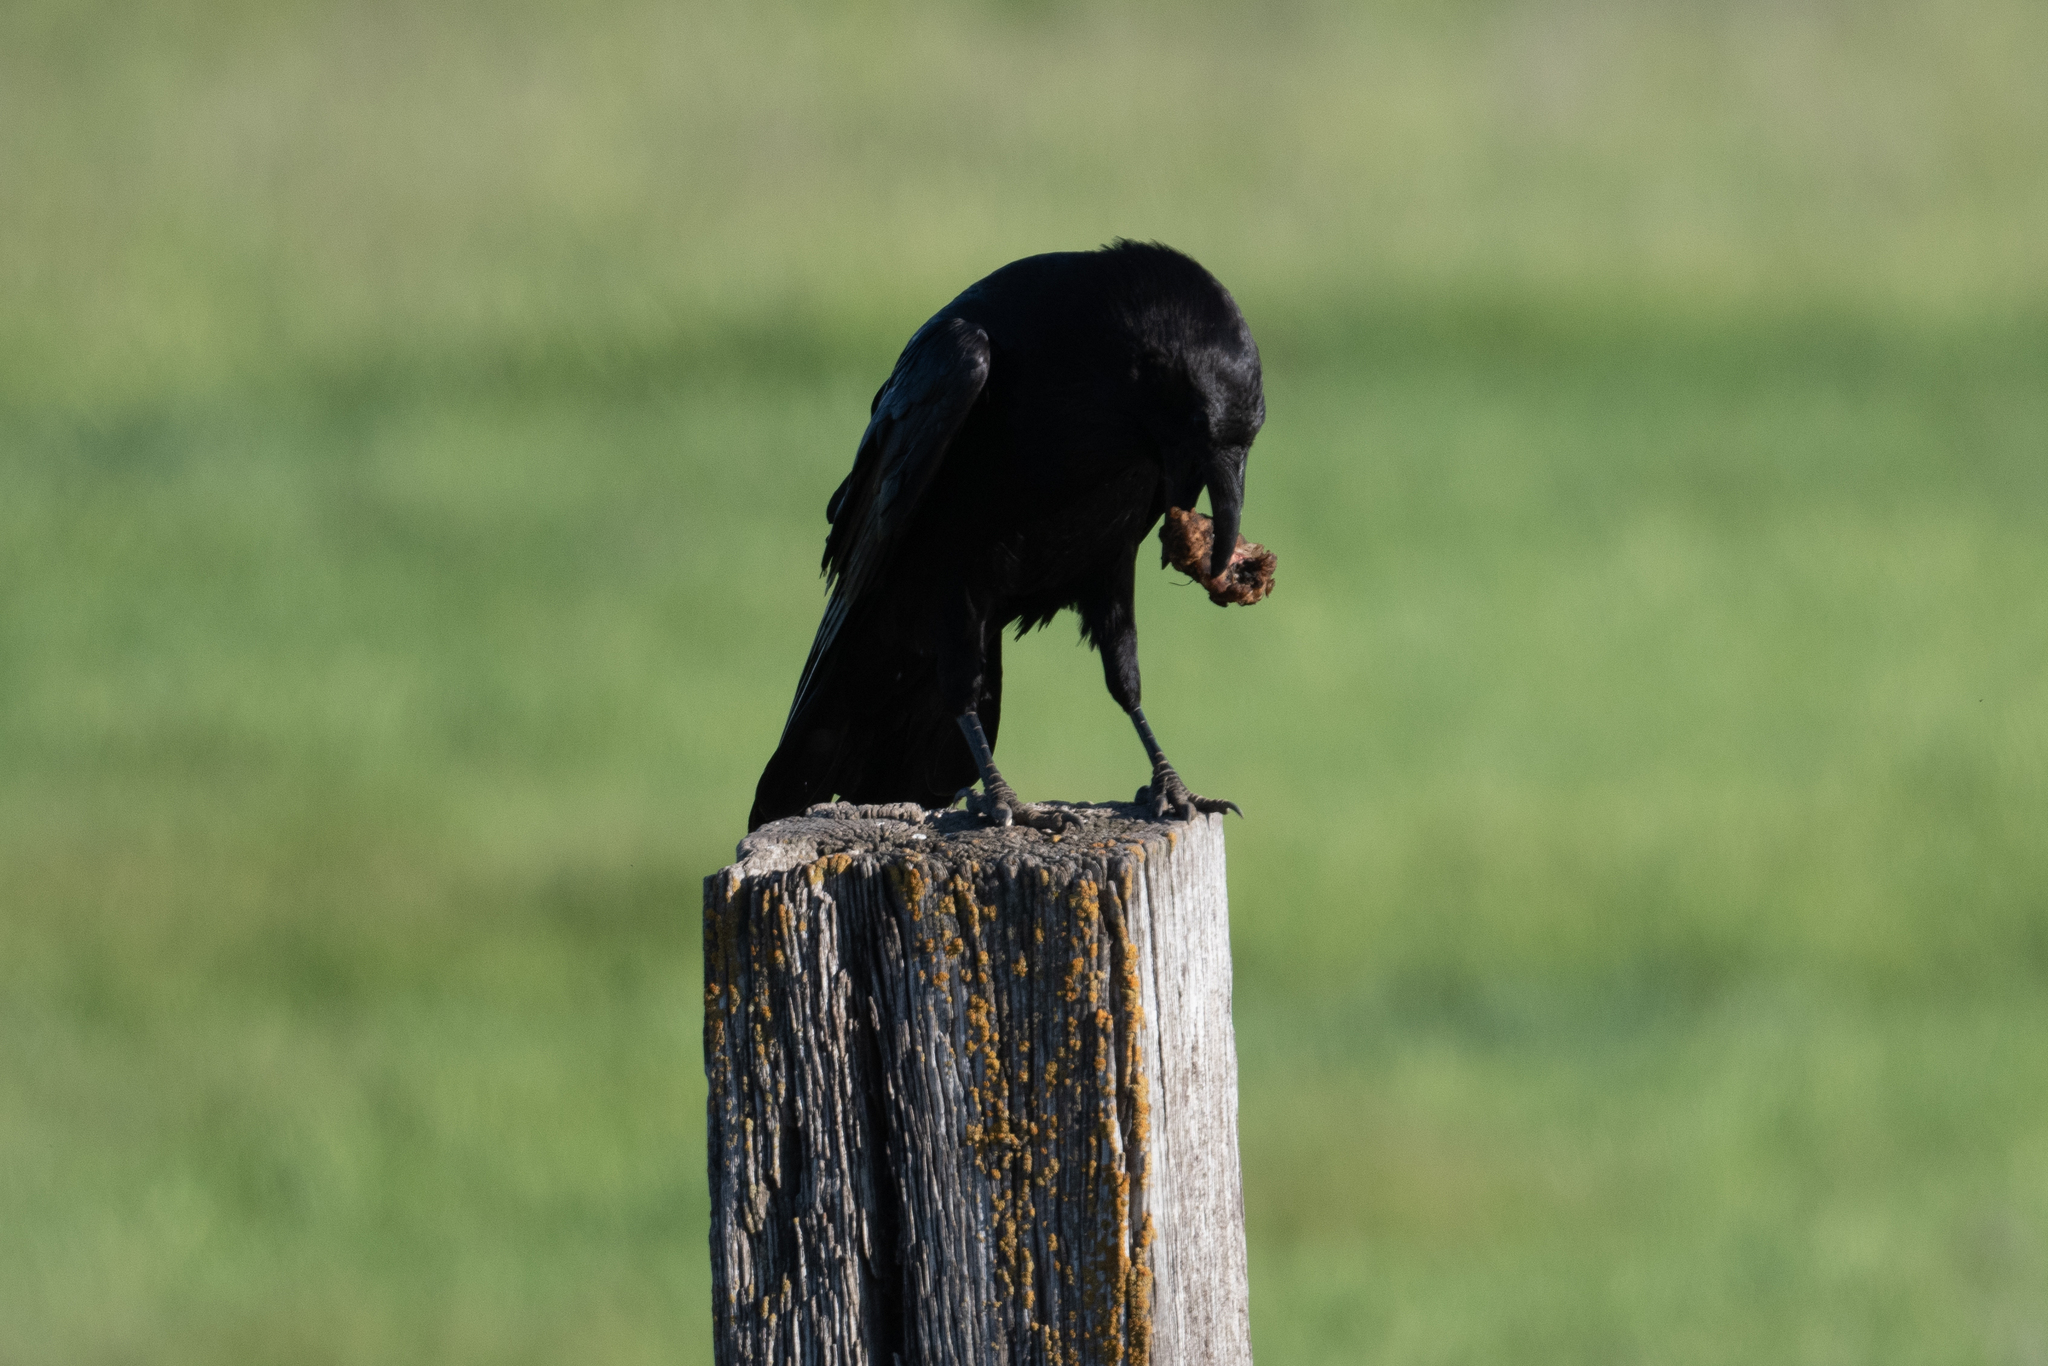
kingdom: Animalia
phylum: Chordata
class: Aves
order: Passeriformes
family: Corvidae
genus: Corvus
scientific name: Corvus corax
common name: Common raven
